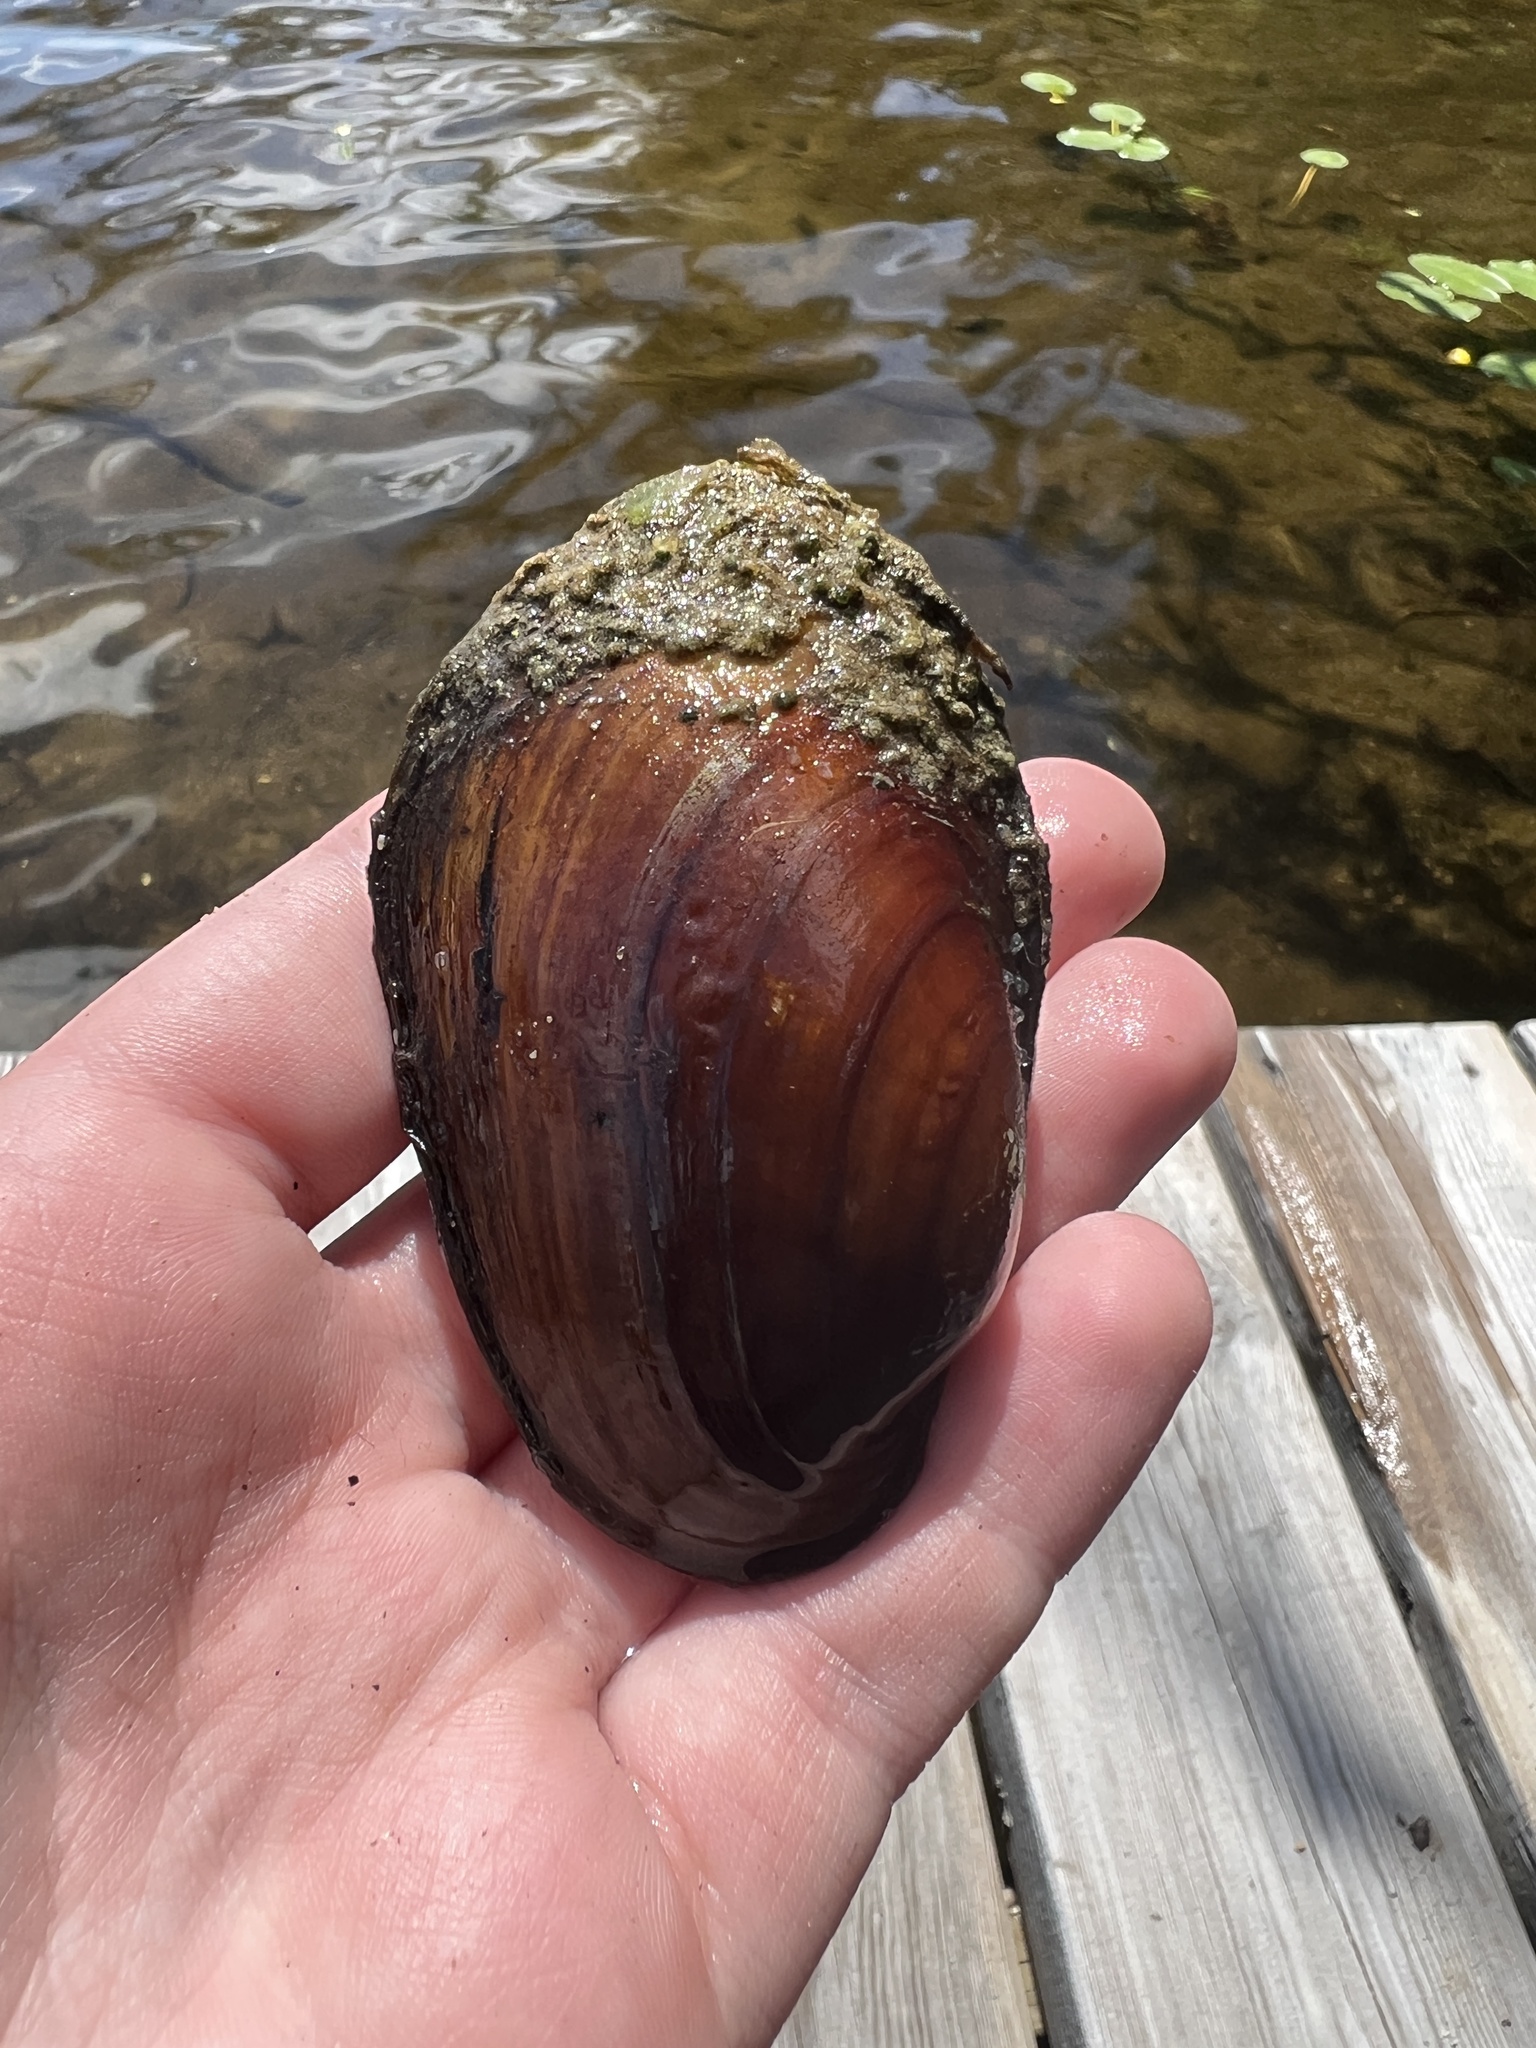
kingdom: Animalia
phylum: Mollusca
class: Bivalvia
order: Unionida
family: Unionidae
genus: Lampsilis
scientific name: Lampsilis siliquoidea
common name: Fatmucket
